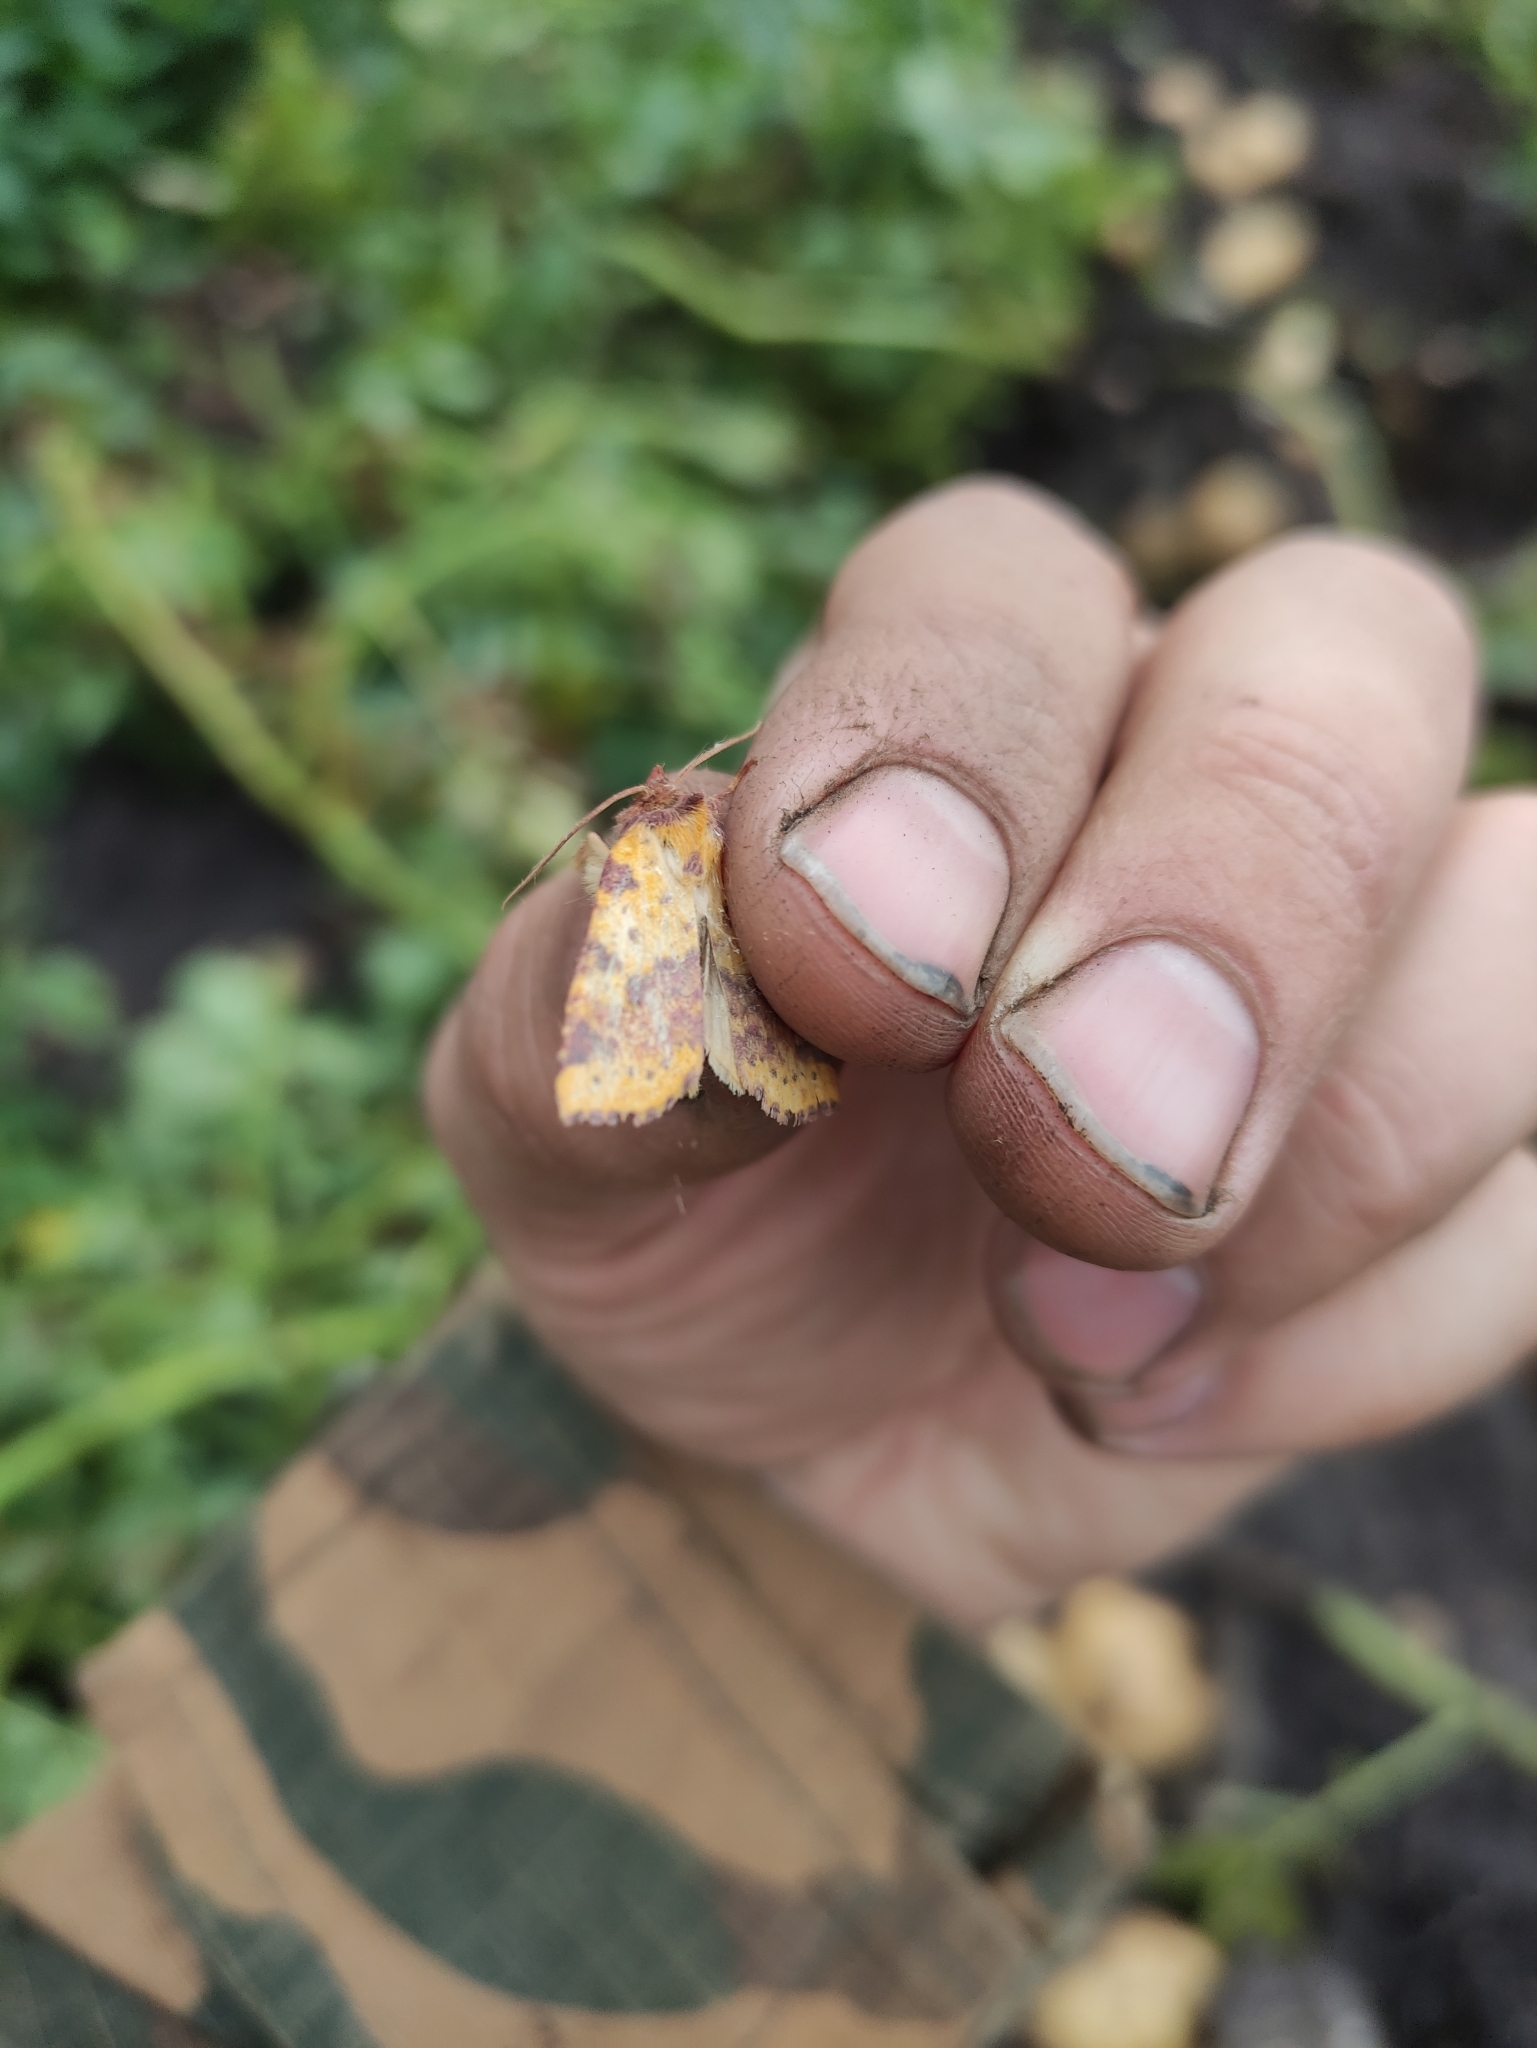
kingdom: Animalia
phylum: Arthropoda
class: Insecta
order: Lepidoptera
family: Noctuidae
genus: Xanthia
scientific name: Xanthia togata
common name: Pink-barred sallow
